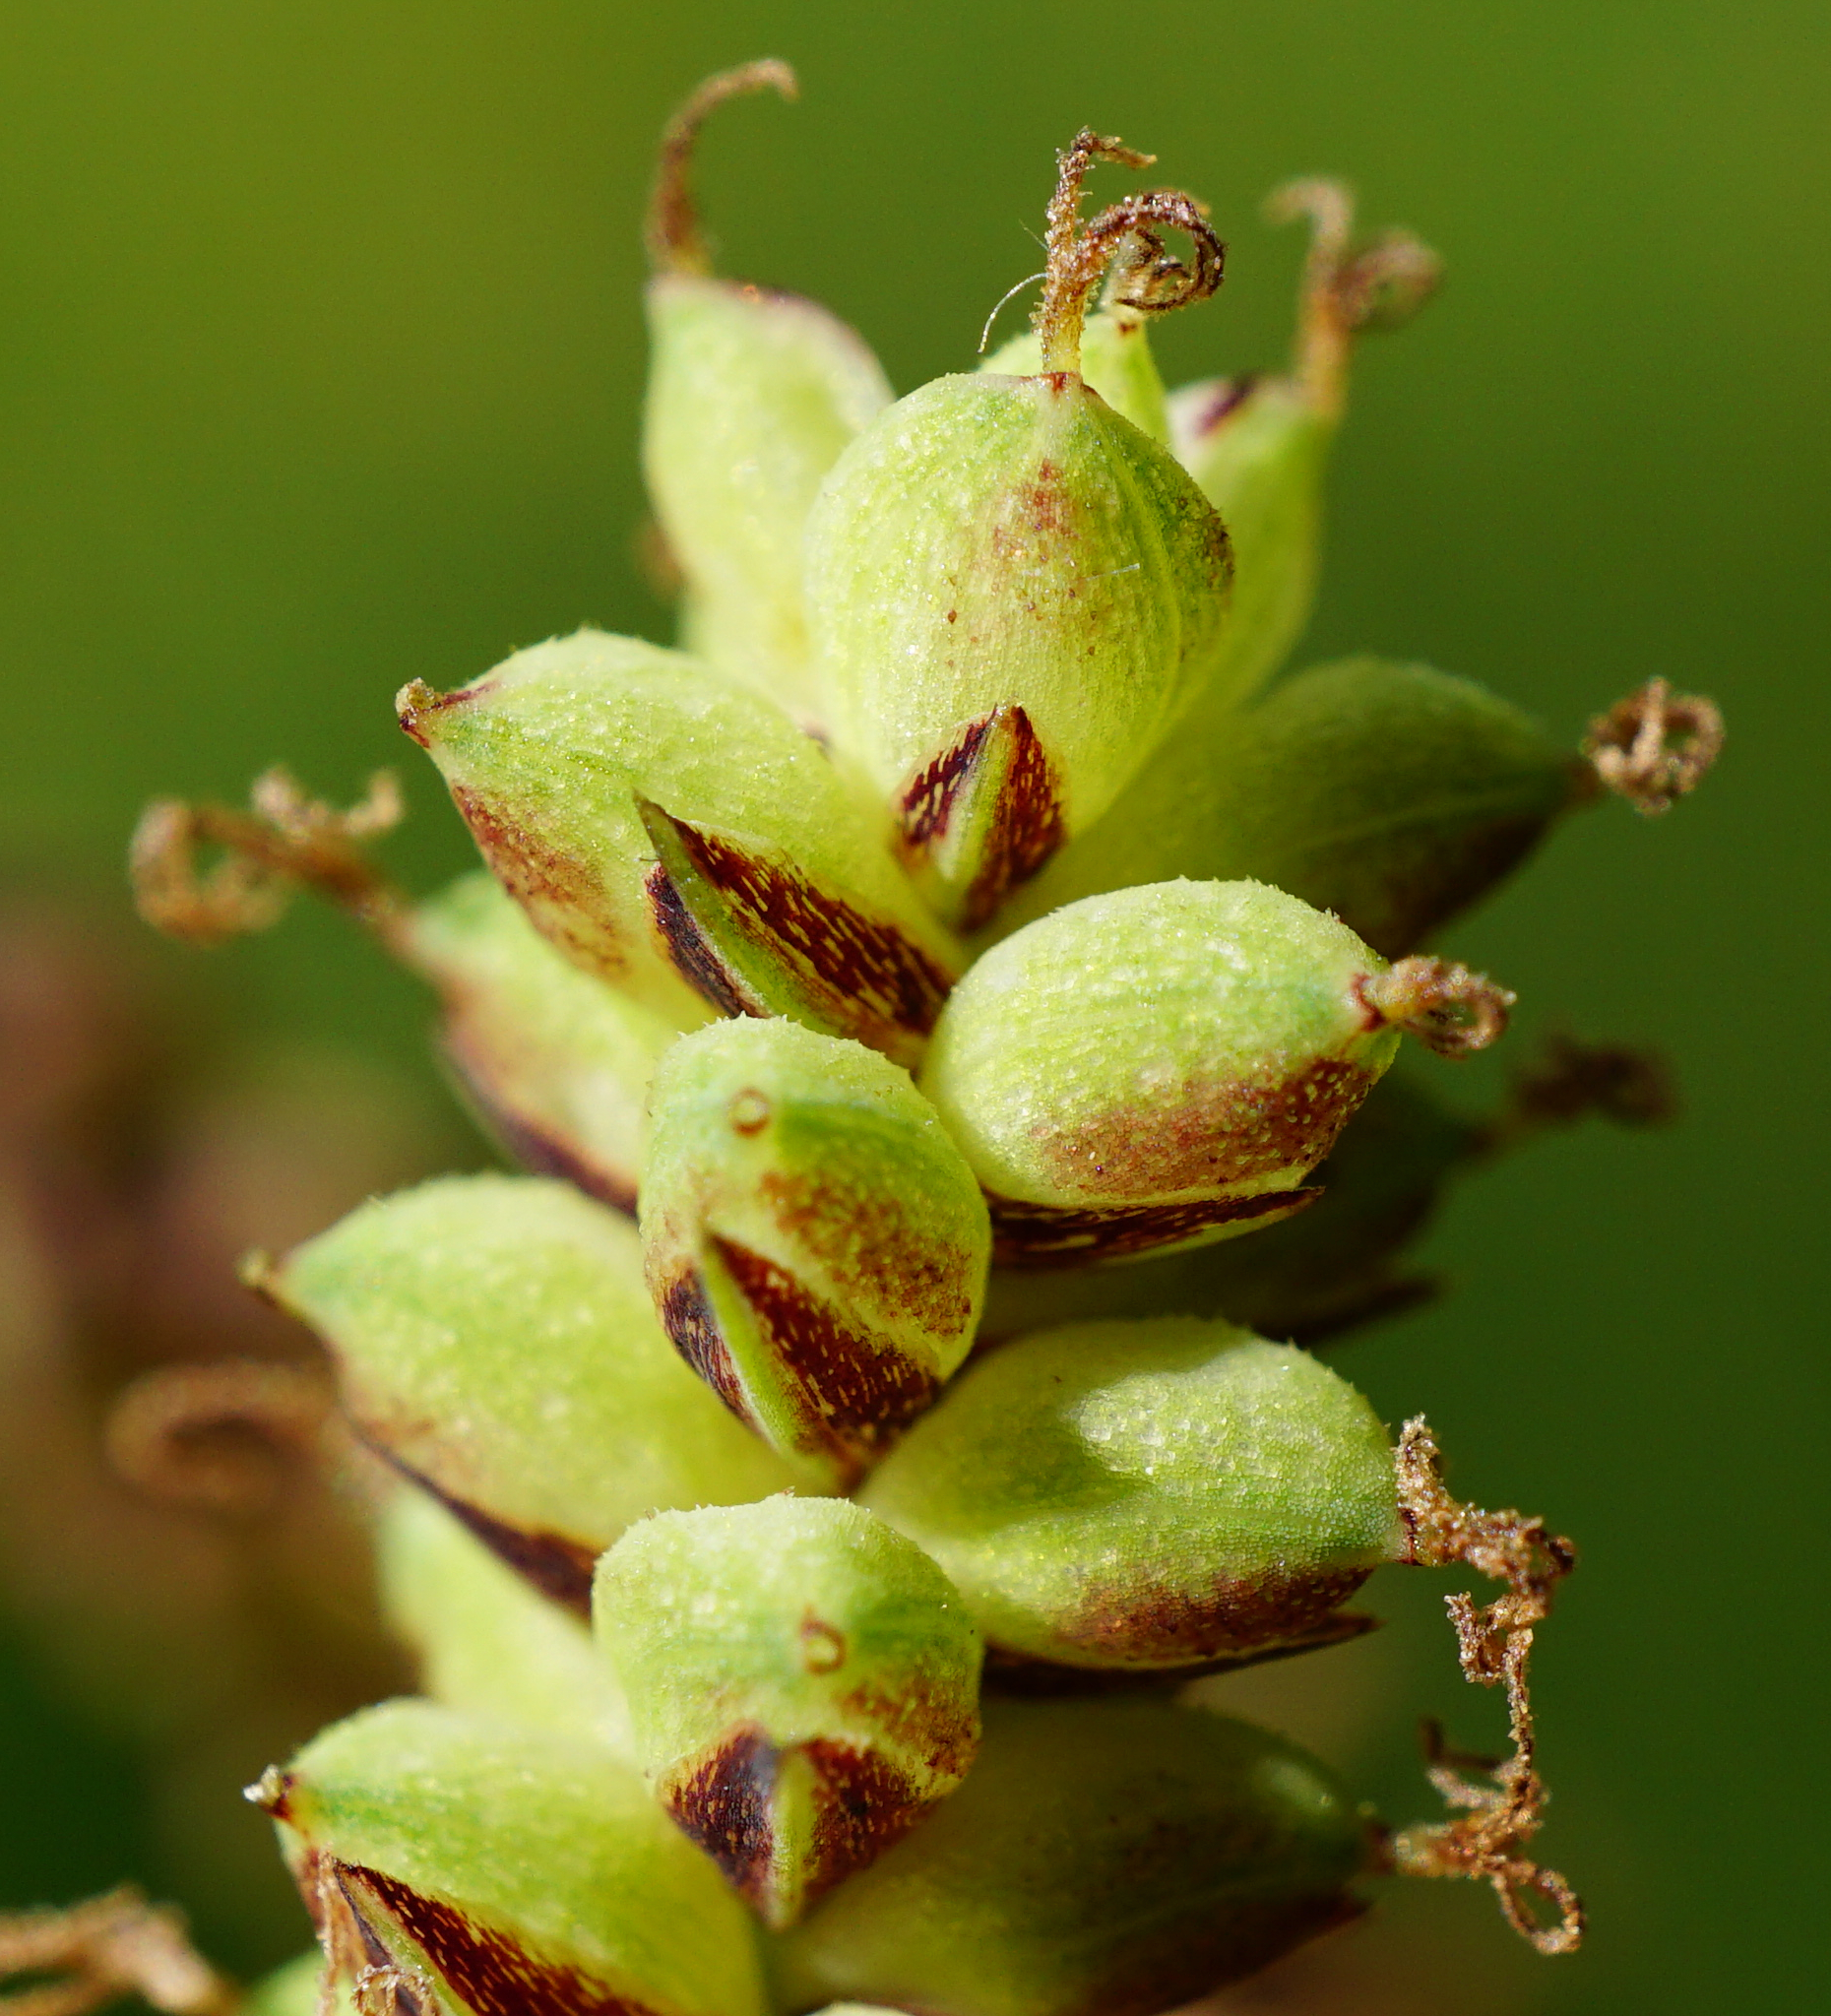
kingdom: Plantae
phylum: Tracheophyta
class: Liliopsida
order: Poales
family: Cyperaceae
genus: Carex
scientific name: Carex flacca
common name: Glaucous sedge
